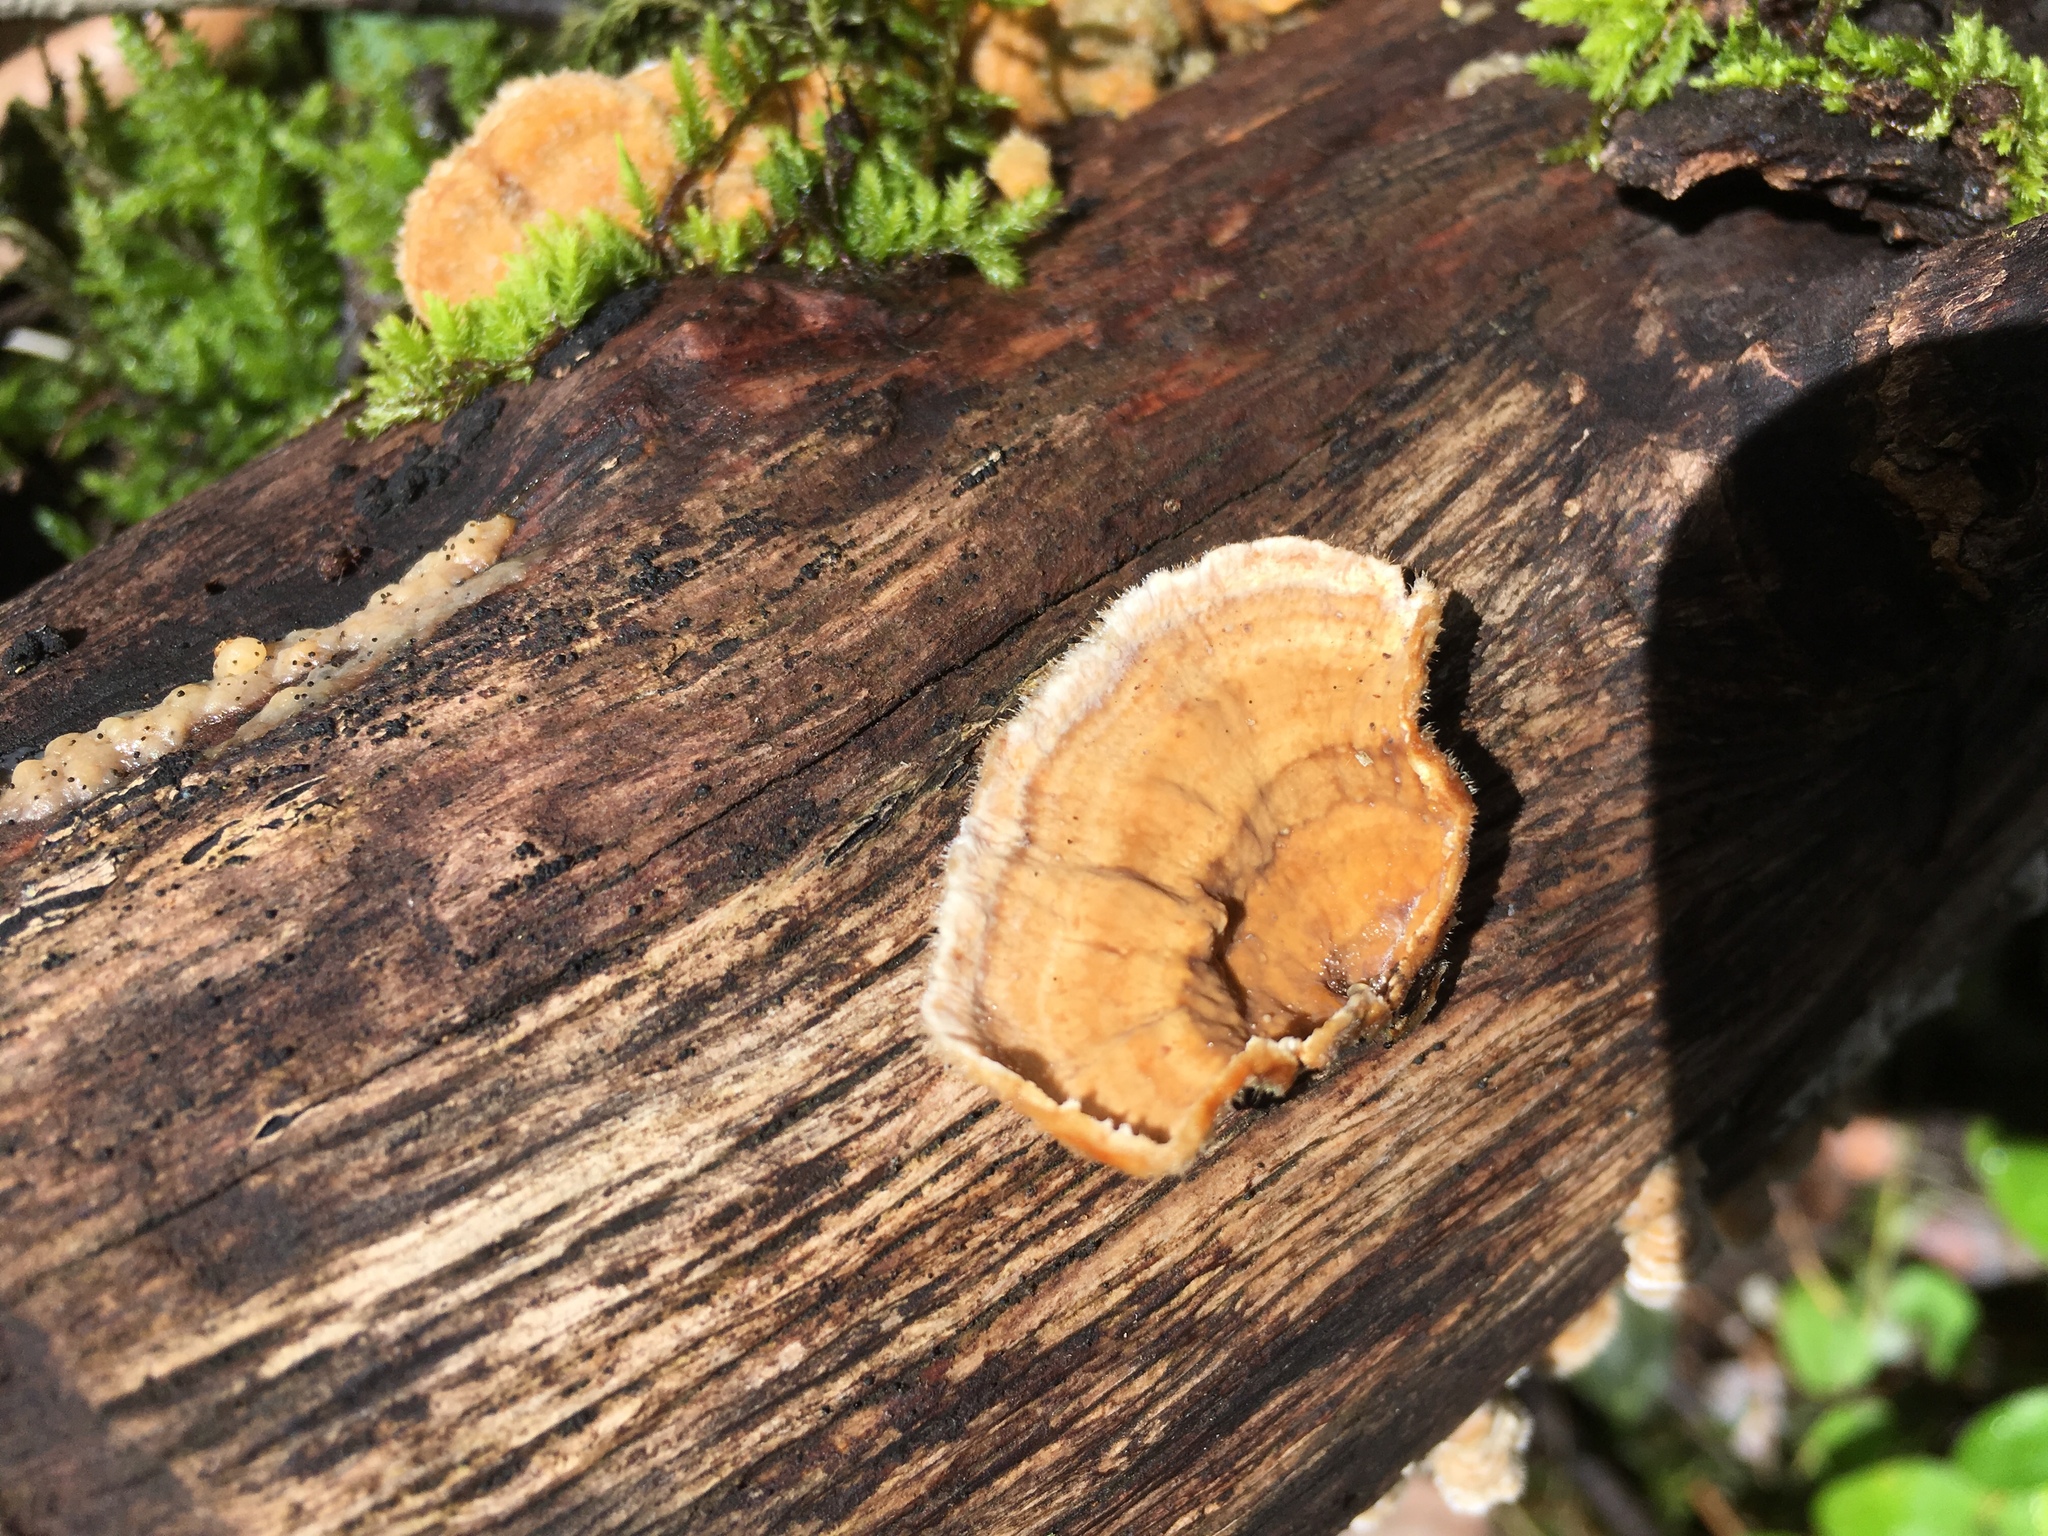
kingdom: Fungi
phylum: Basidiomycota
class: Agaricomycetes
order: Russulales
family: Stereaceae
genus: Stereum
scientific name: Stereum hirsutum
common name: Hairy curtain crust
